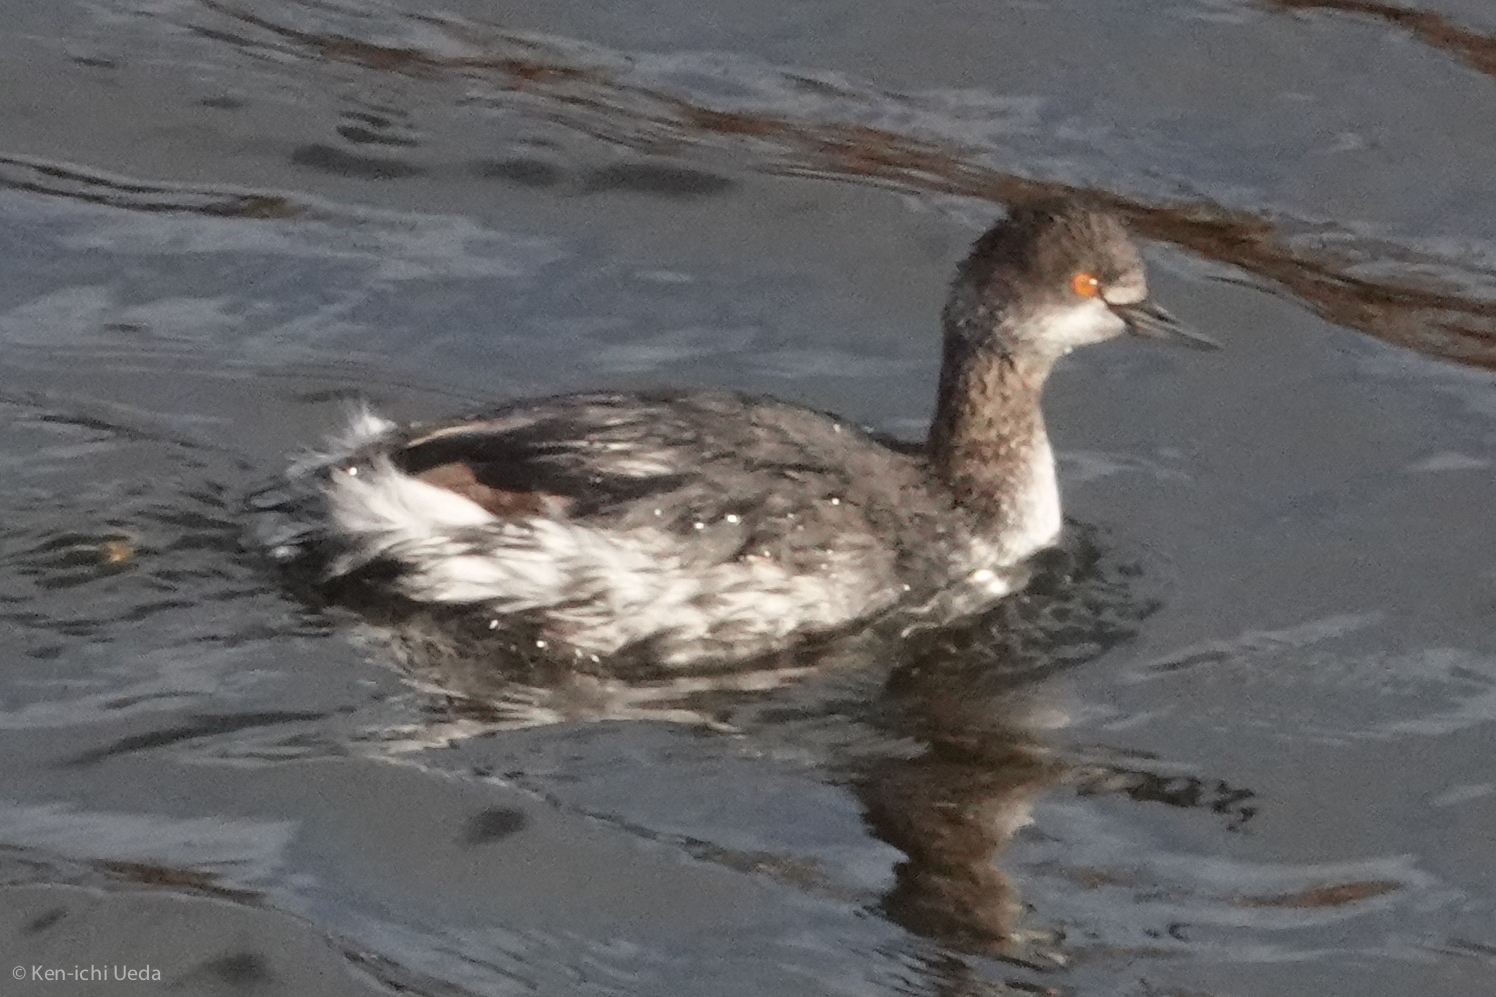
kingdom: Animalia
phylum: Chordata
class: Aves
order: Podicipediformes
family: Podicipedidae
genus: Podiceps
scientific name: Podiceps nigricollis
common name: Black-necked grebe
